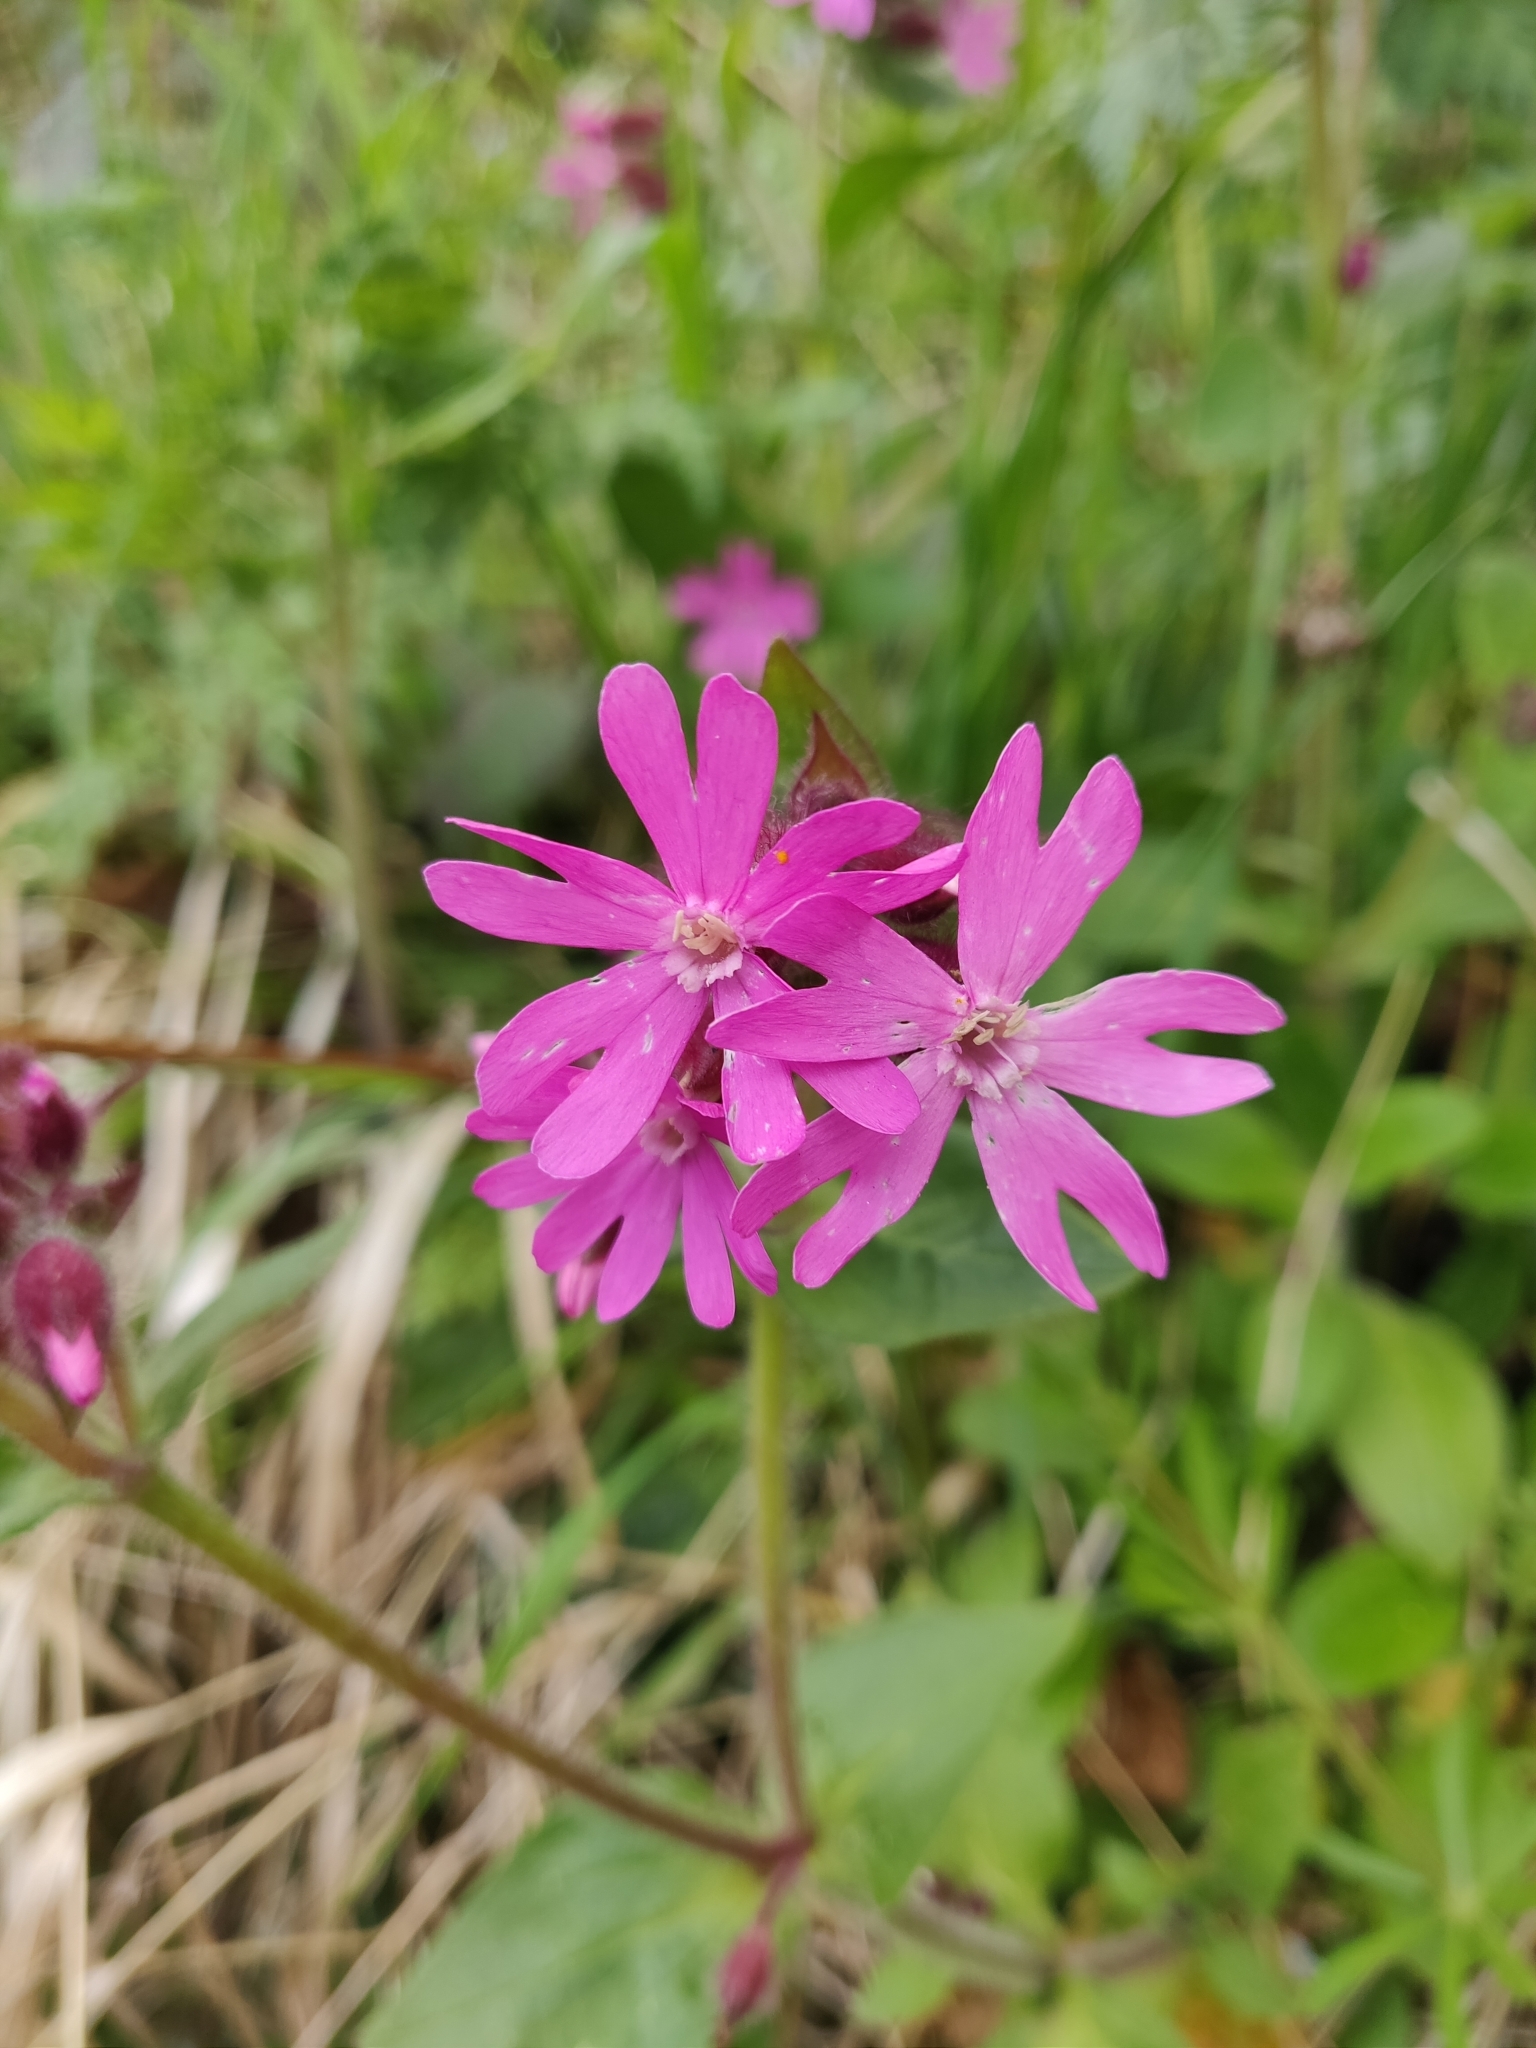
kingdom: Plantae
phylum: Tracheophyta
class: Magnoliopsida
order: Caryophyllales
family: Caryophyllaceae
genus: Silene
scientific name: Silene dioica
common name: Red campion
